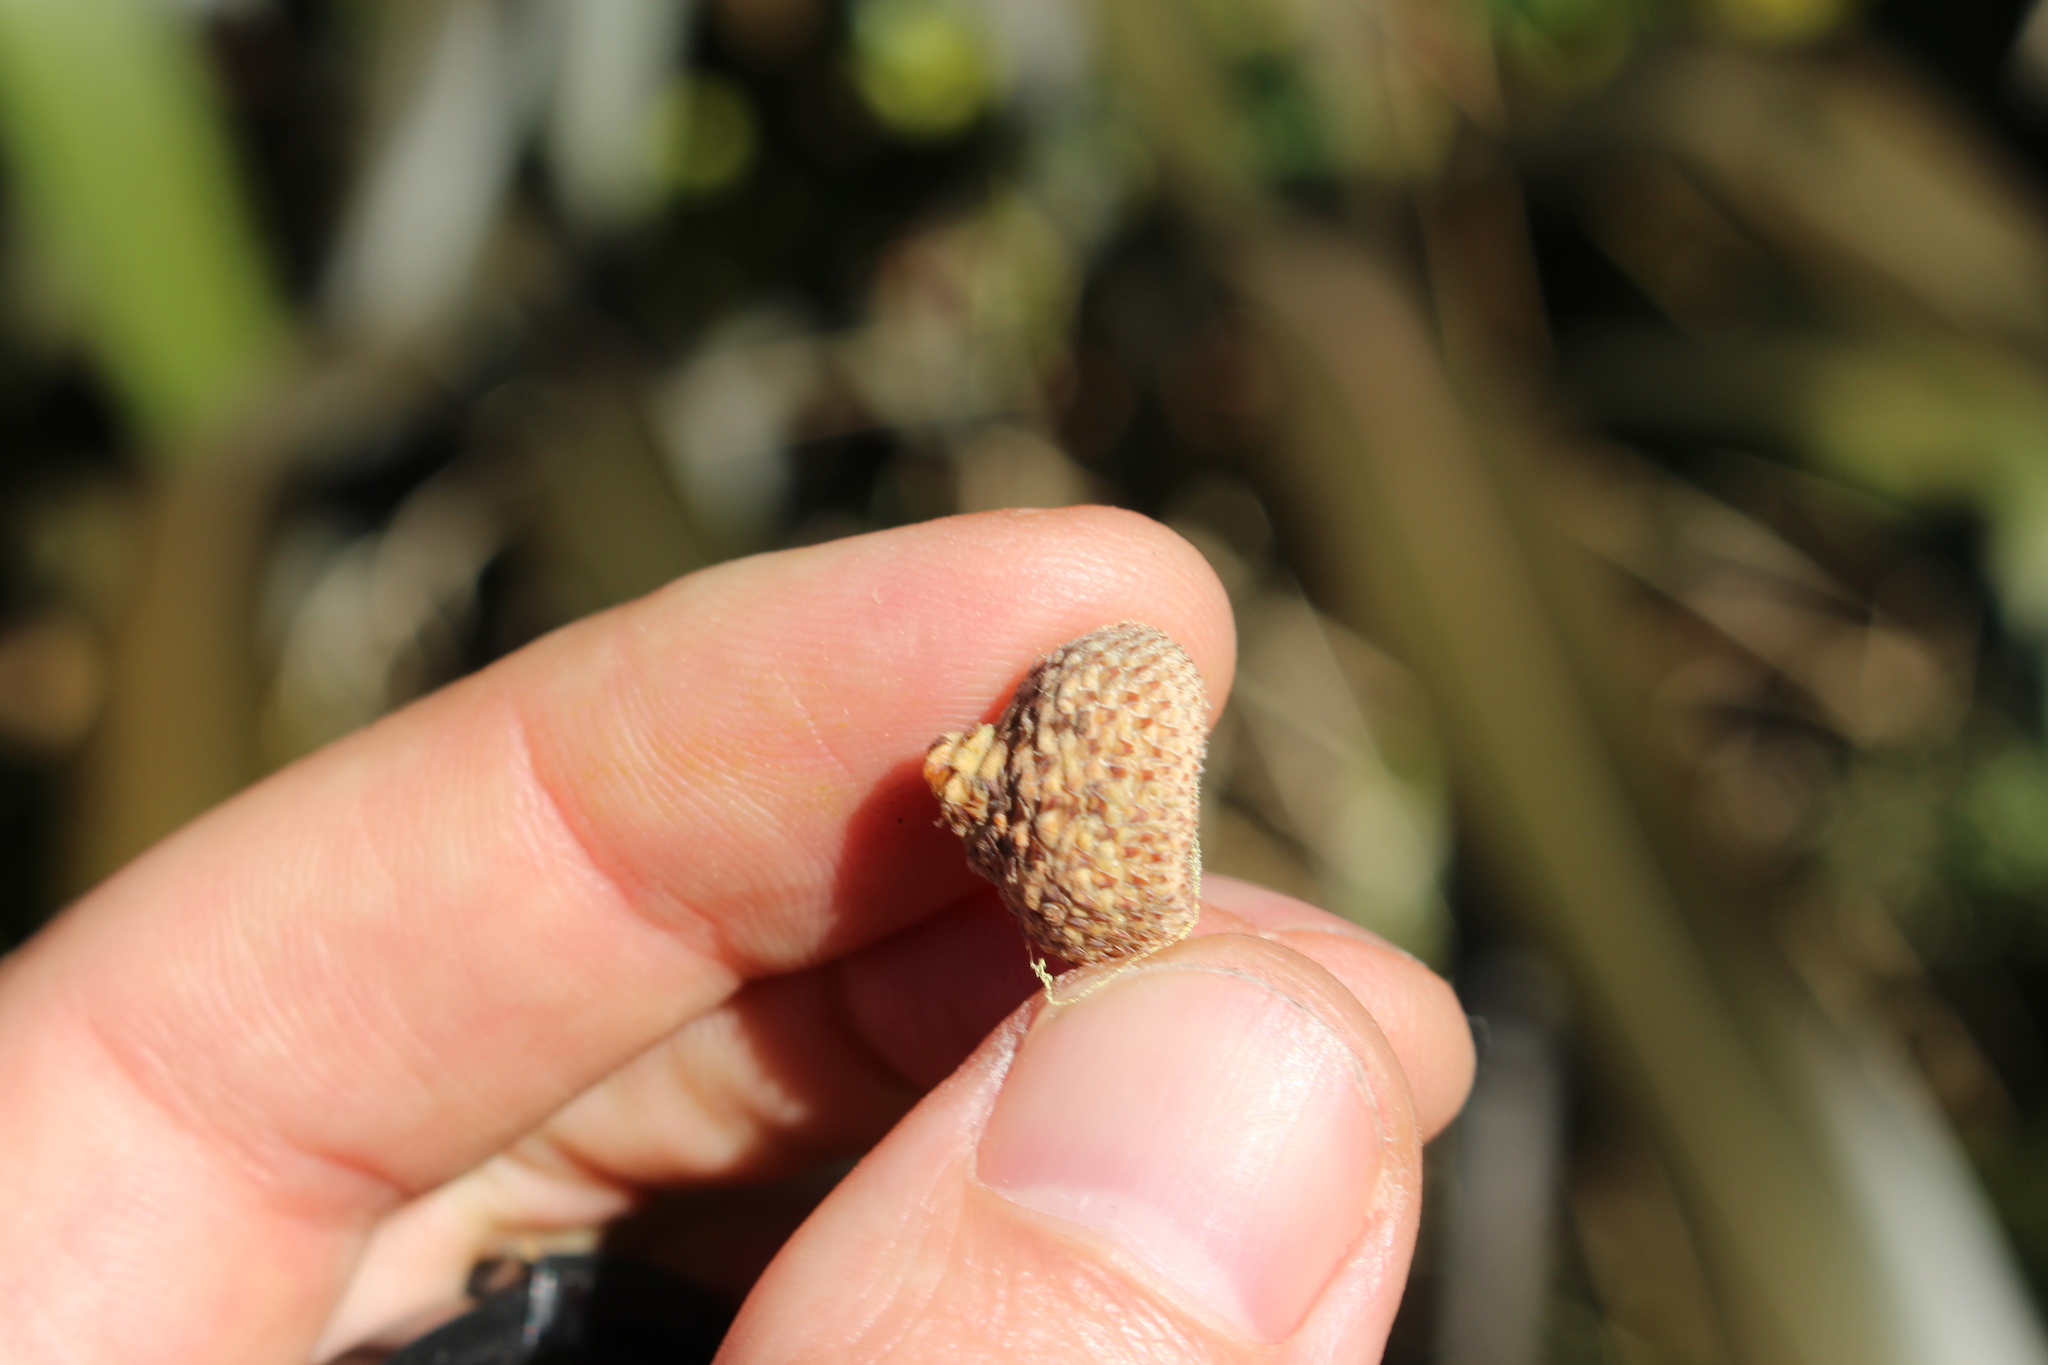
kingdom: Plantae
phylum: Tracheophyta
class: Magnoliopsida
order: Fagales
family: Fagaceae
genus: Quercus
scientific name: Quercus robur
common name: Pedunculate oak
